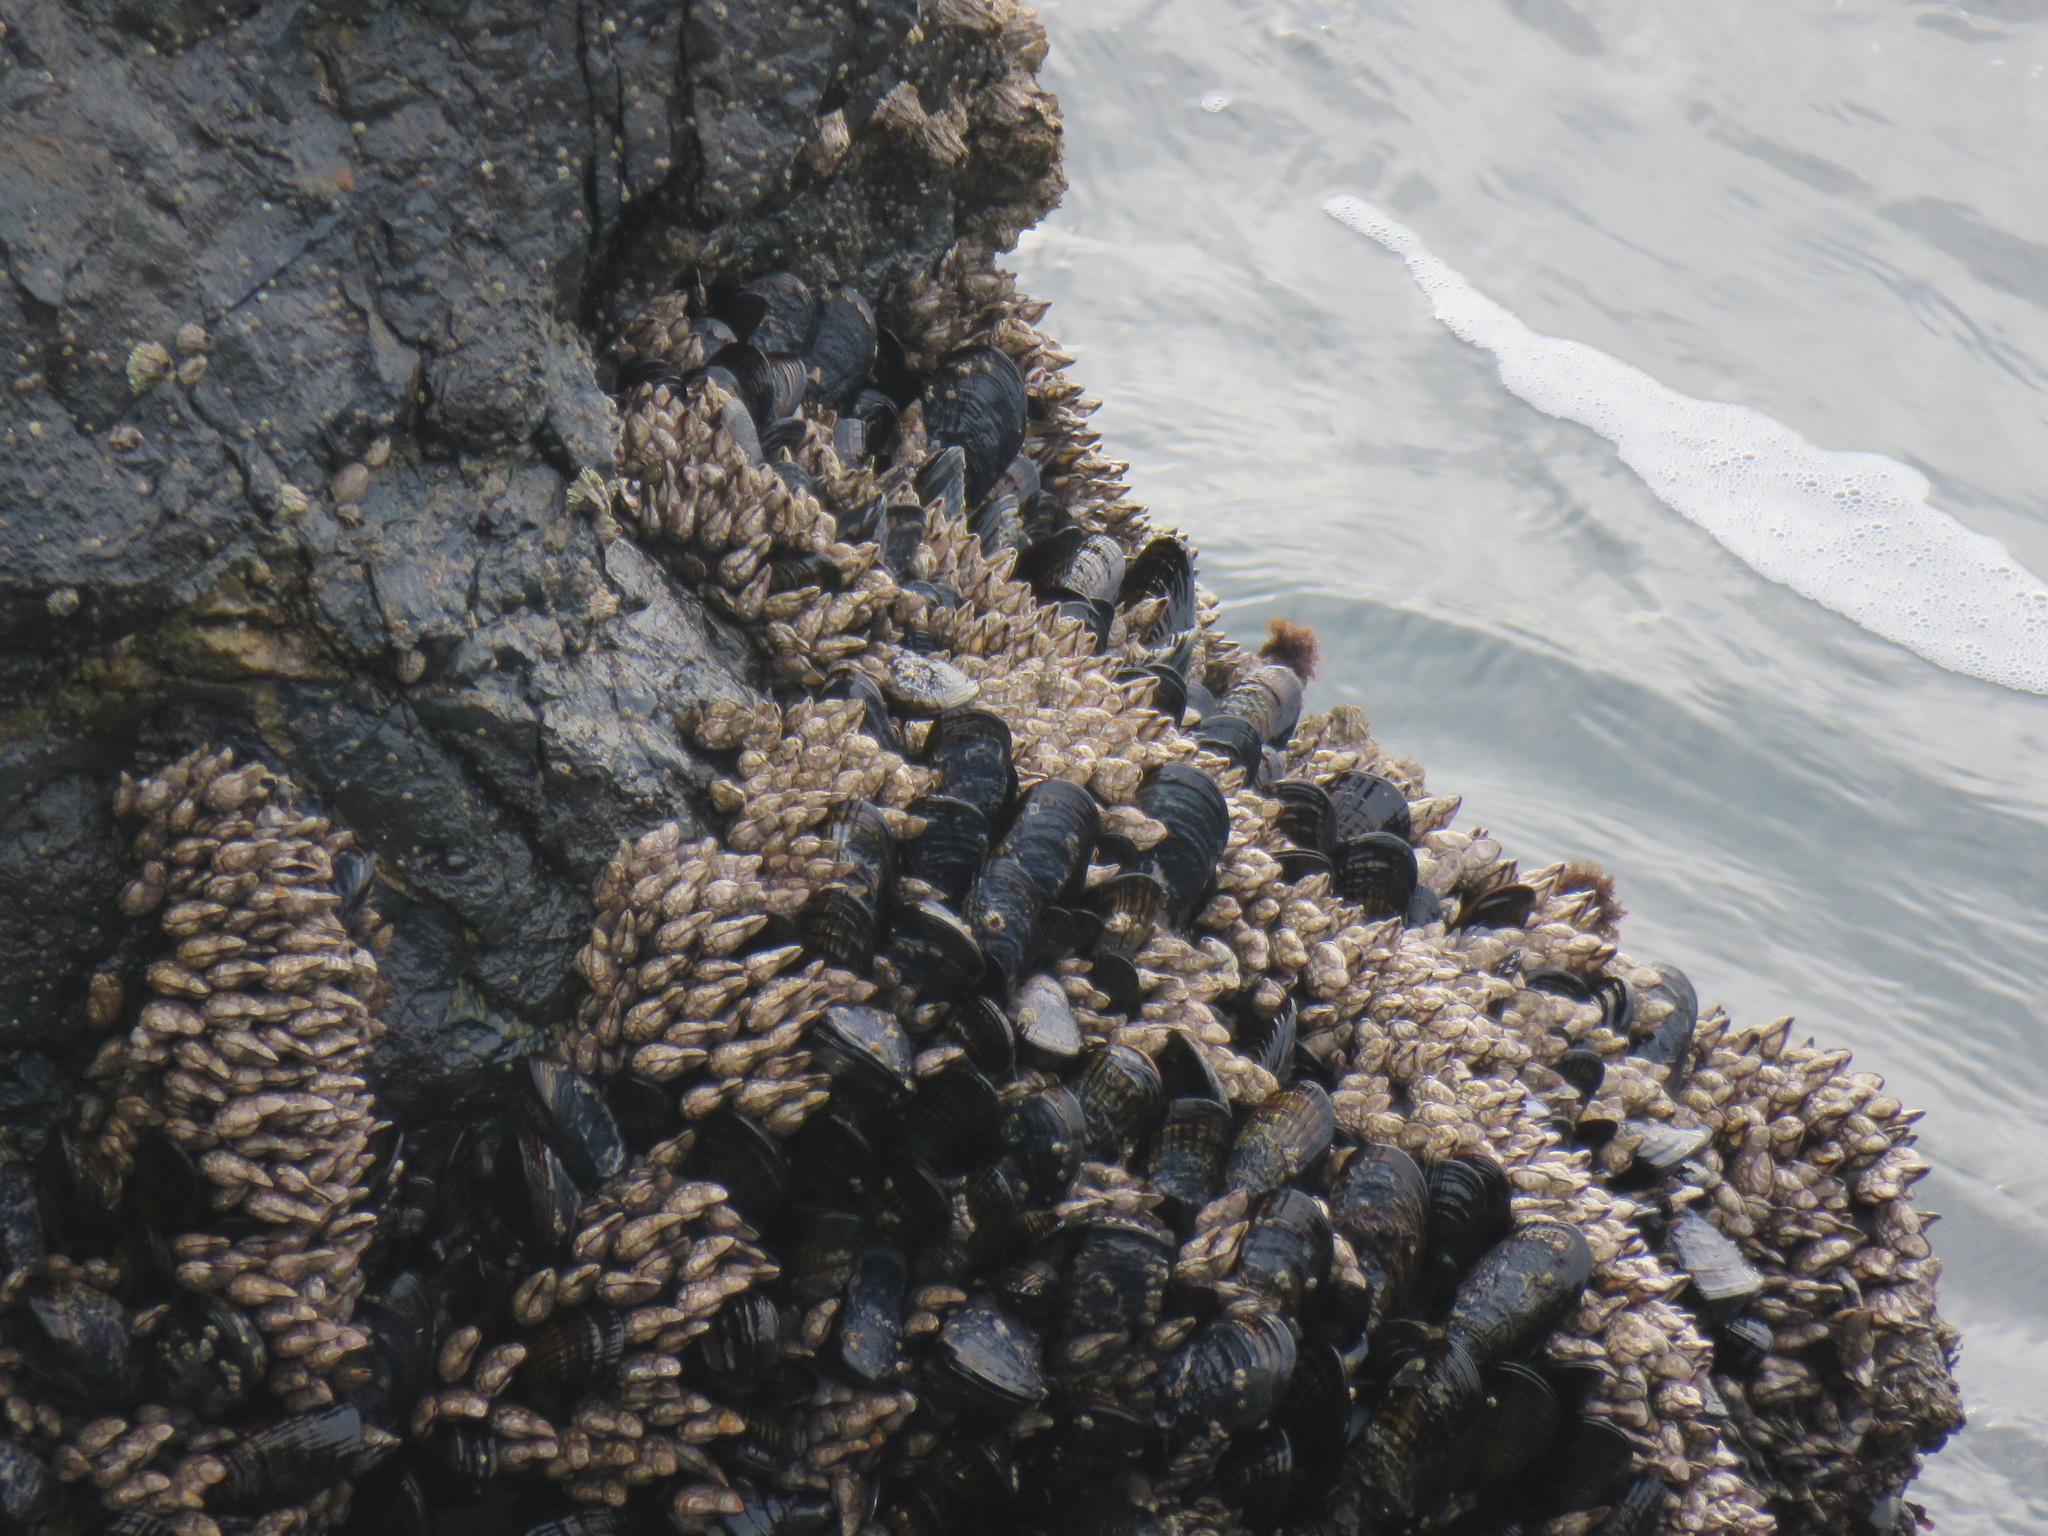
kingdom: Animalia
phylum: Arthropoda
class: Maxillopoda
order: Pedunculata
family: Pollicipedidae
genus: Pollicipes
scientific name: Pollicipes polymerus
